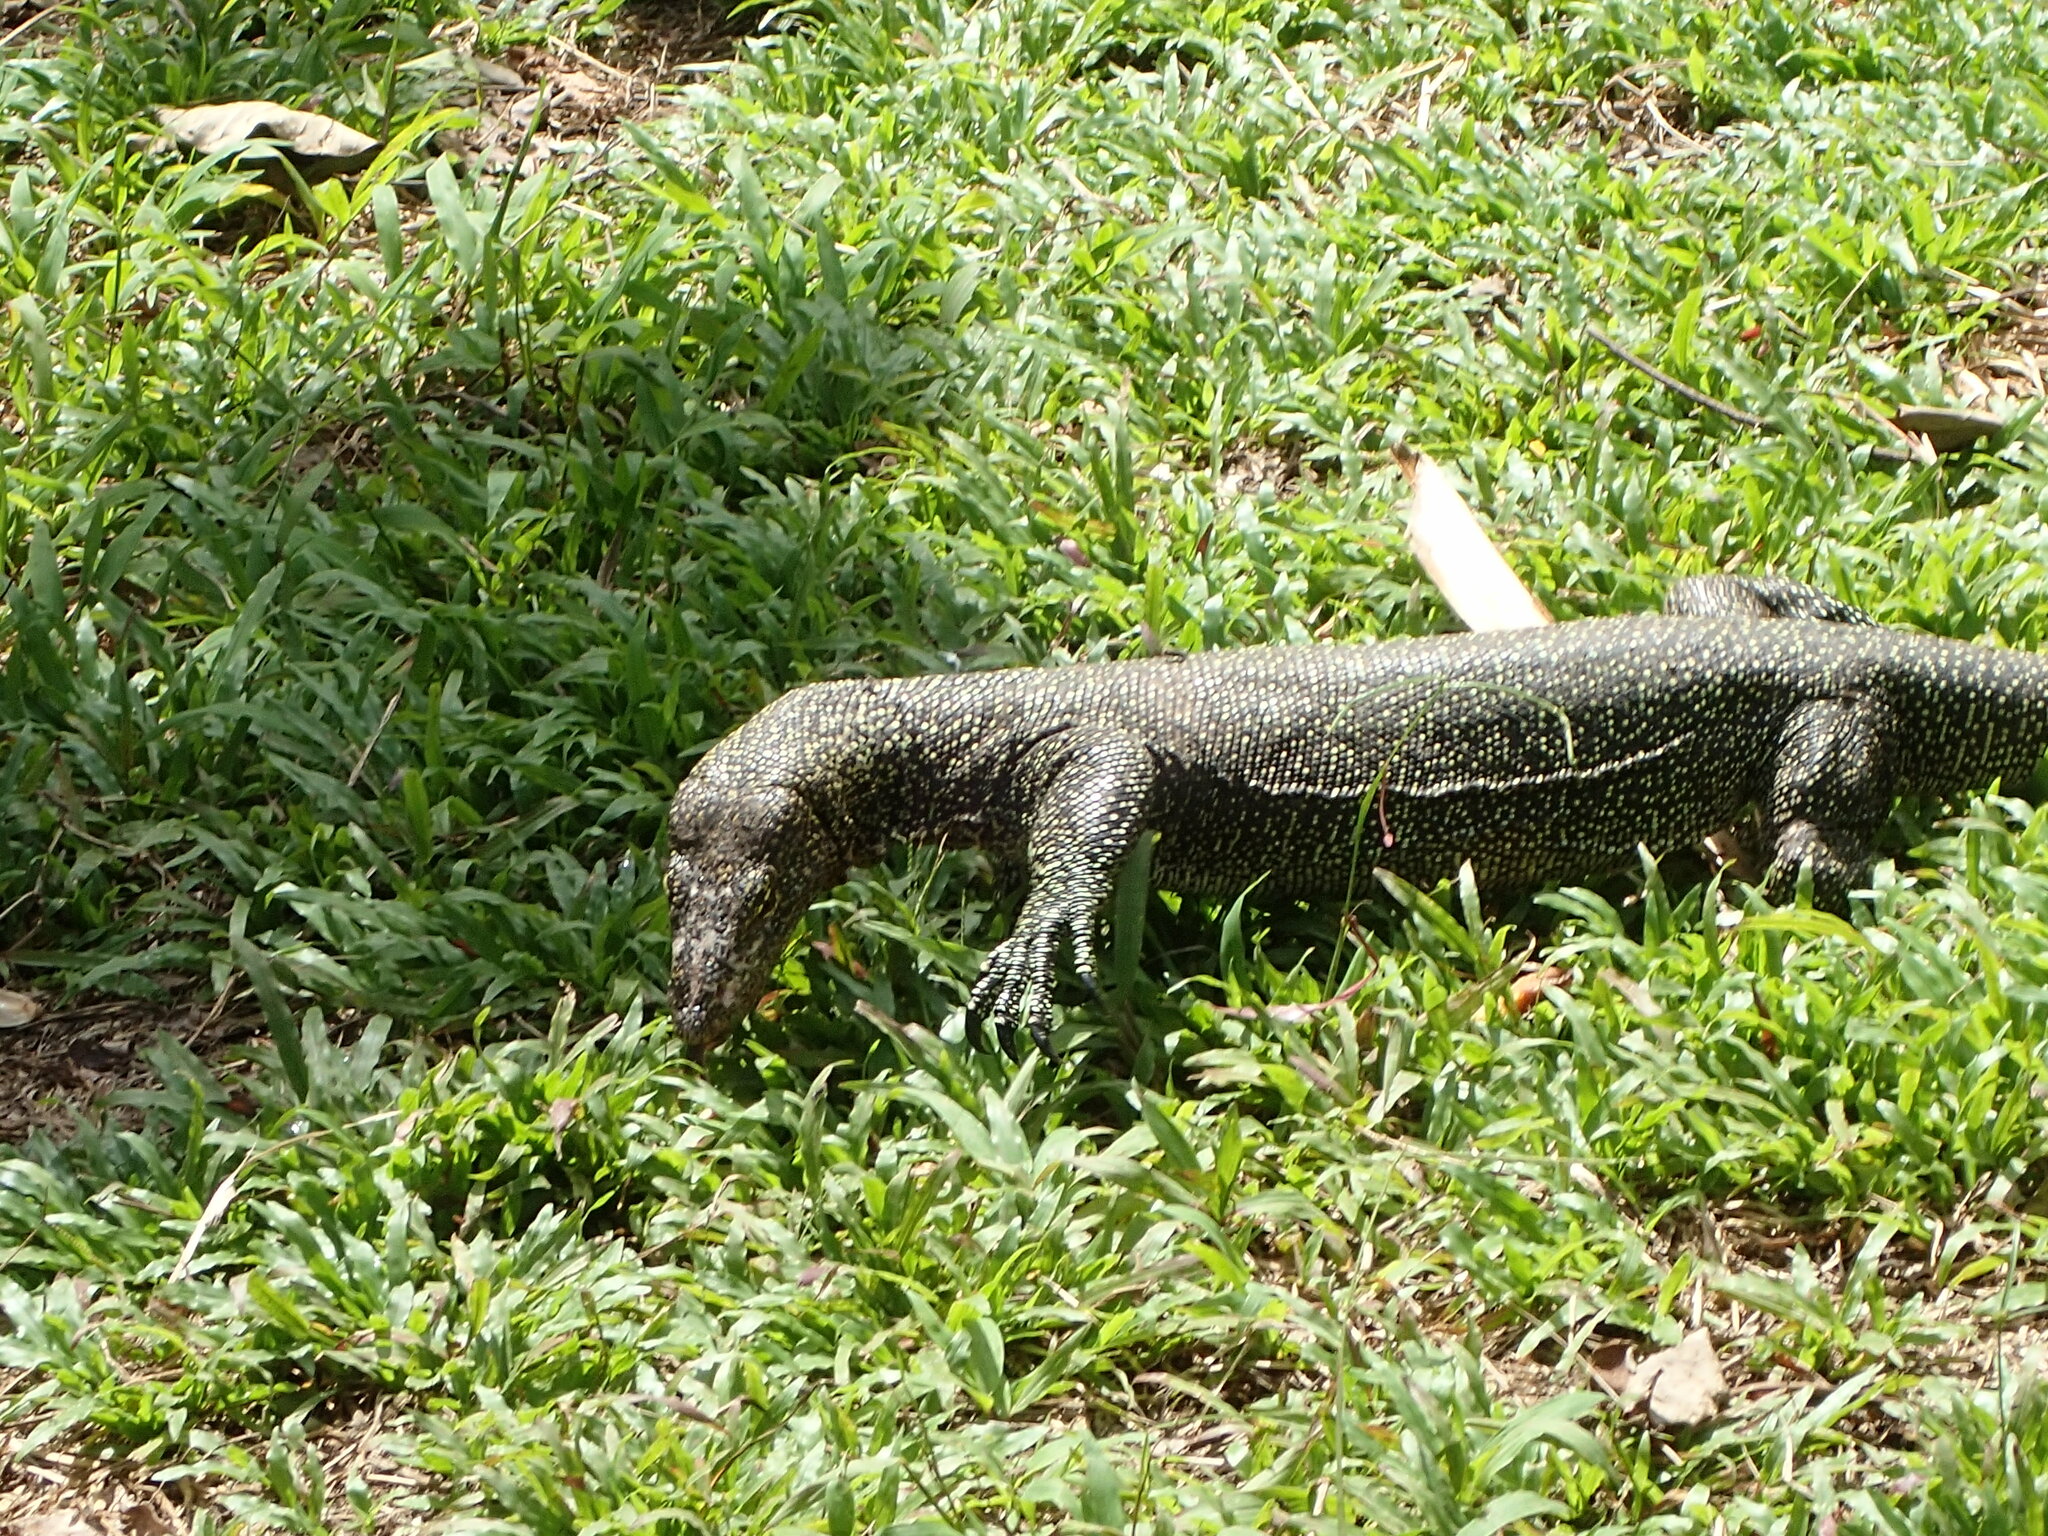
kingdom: Animalia
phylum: Chordata
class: Squamata
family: Varanidae
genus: Varanus
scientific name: Varanus indicus
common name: Mangrove monitor
